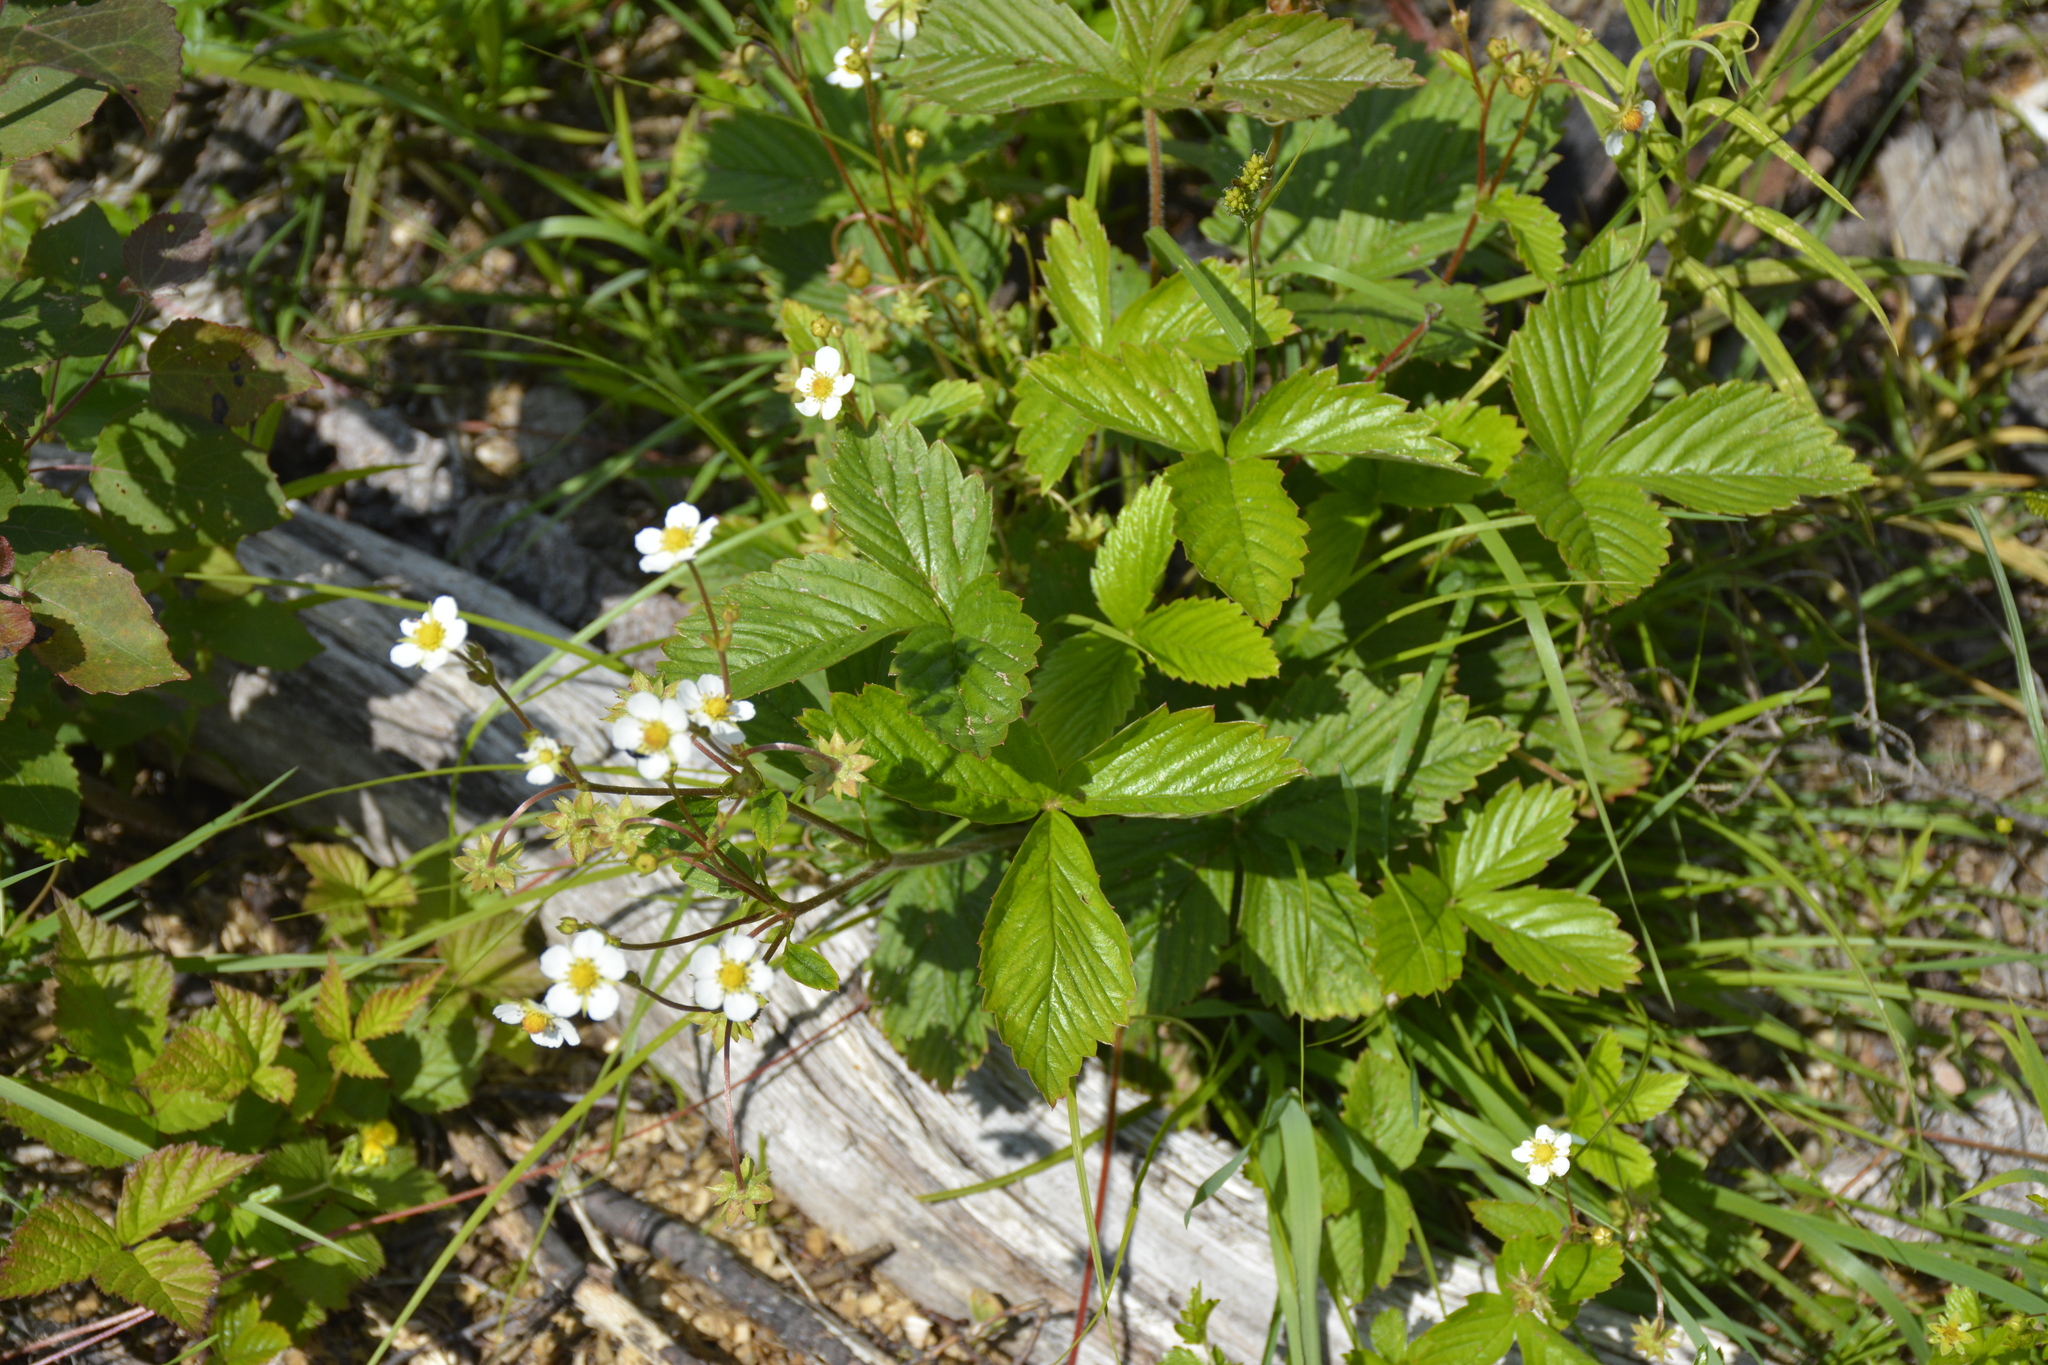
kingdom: Plantae
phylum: Tracheophyta
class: Magnoliopsida
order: Rosales
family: Rosaceae
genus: Fragaria
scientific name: Fragaria vesca
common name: Wild strawberry
